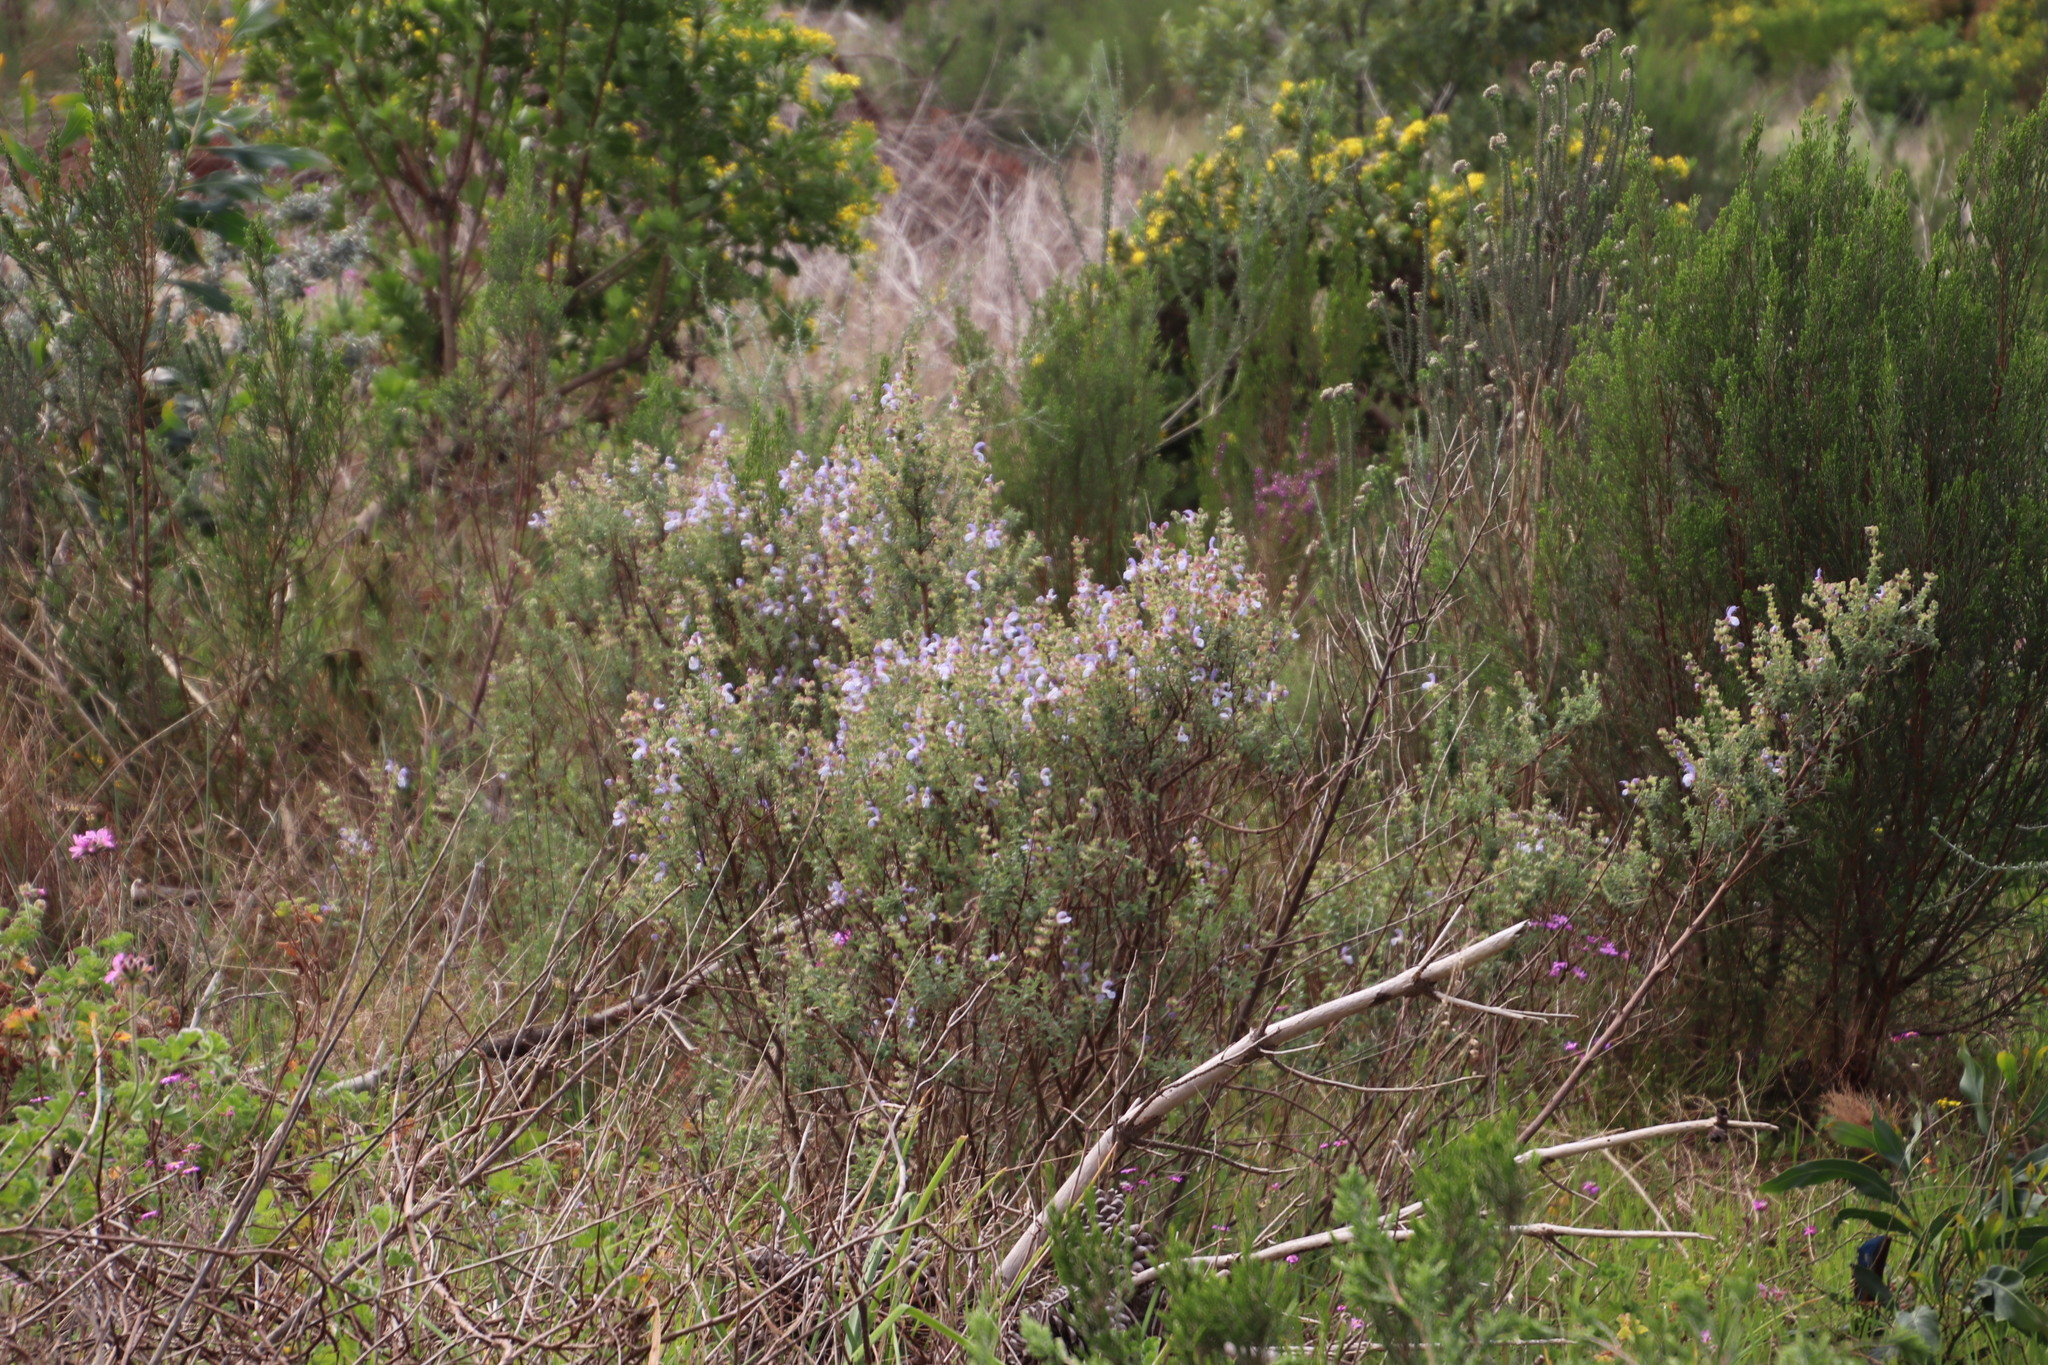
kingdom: Plantae
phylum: Tracheophyta
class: Magnoliopsida
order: Lamiales
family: Lamiaceae
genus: Salvia
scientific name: Salvia africana
